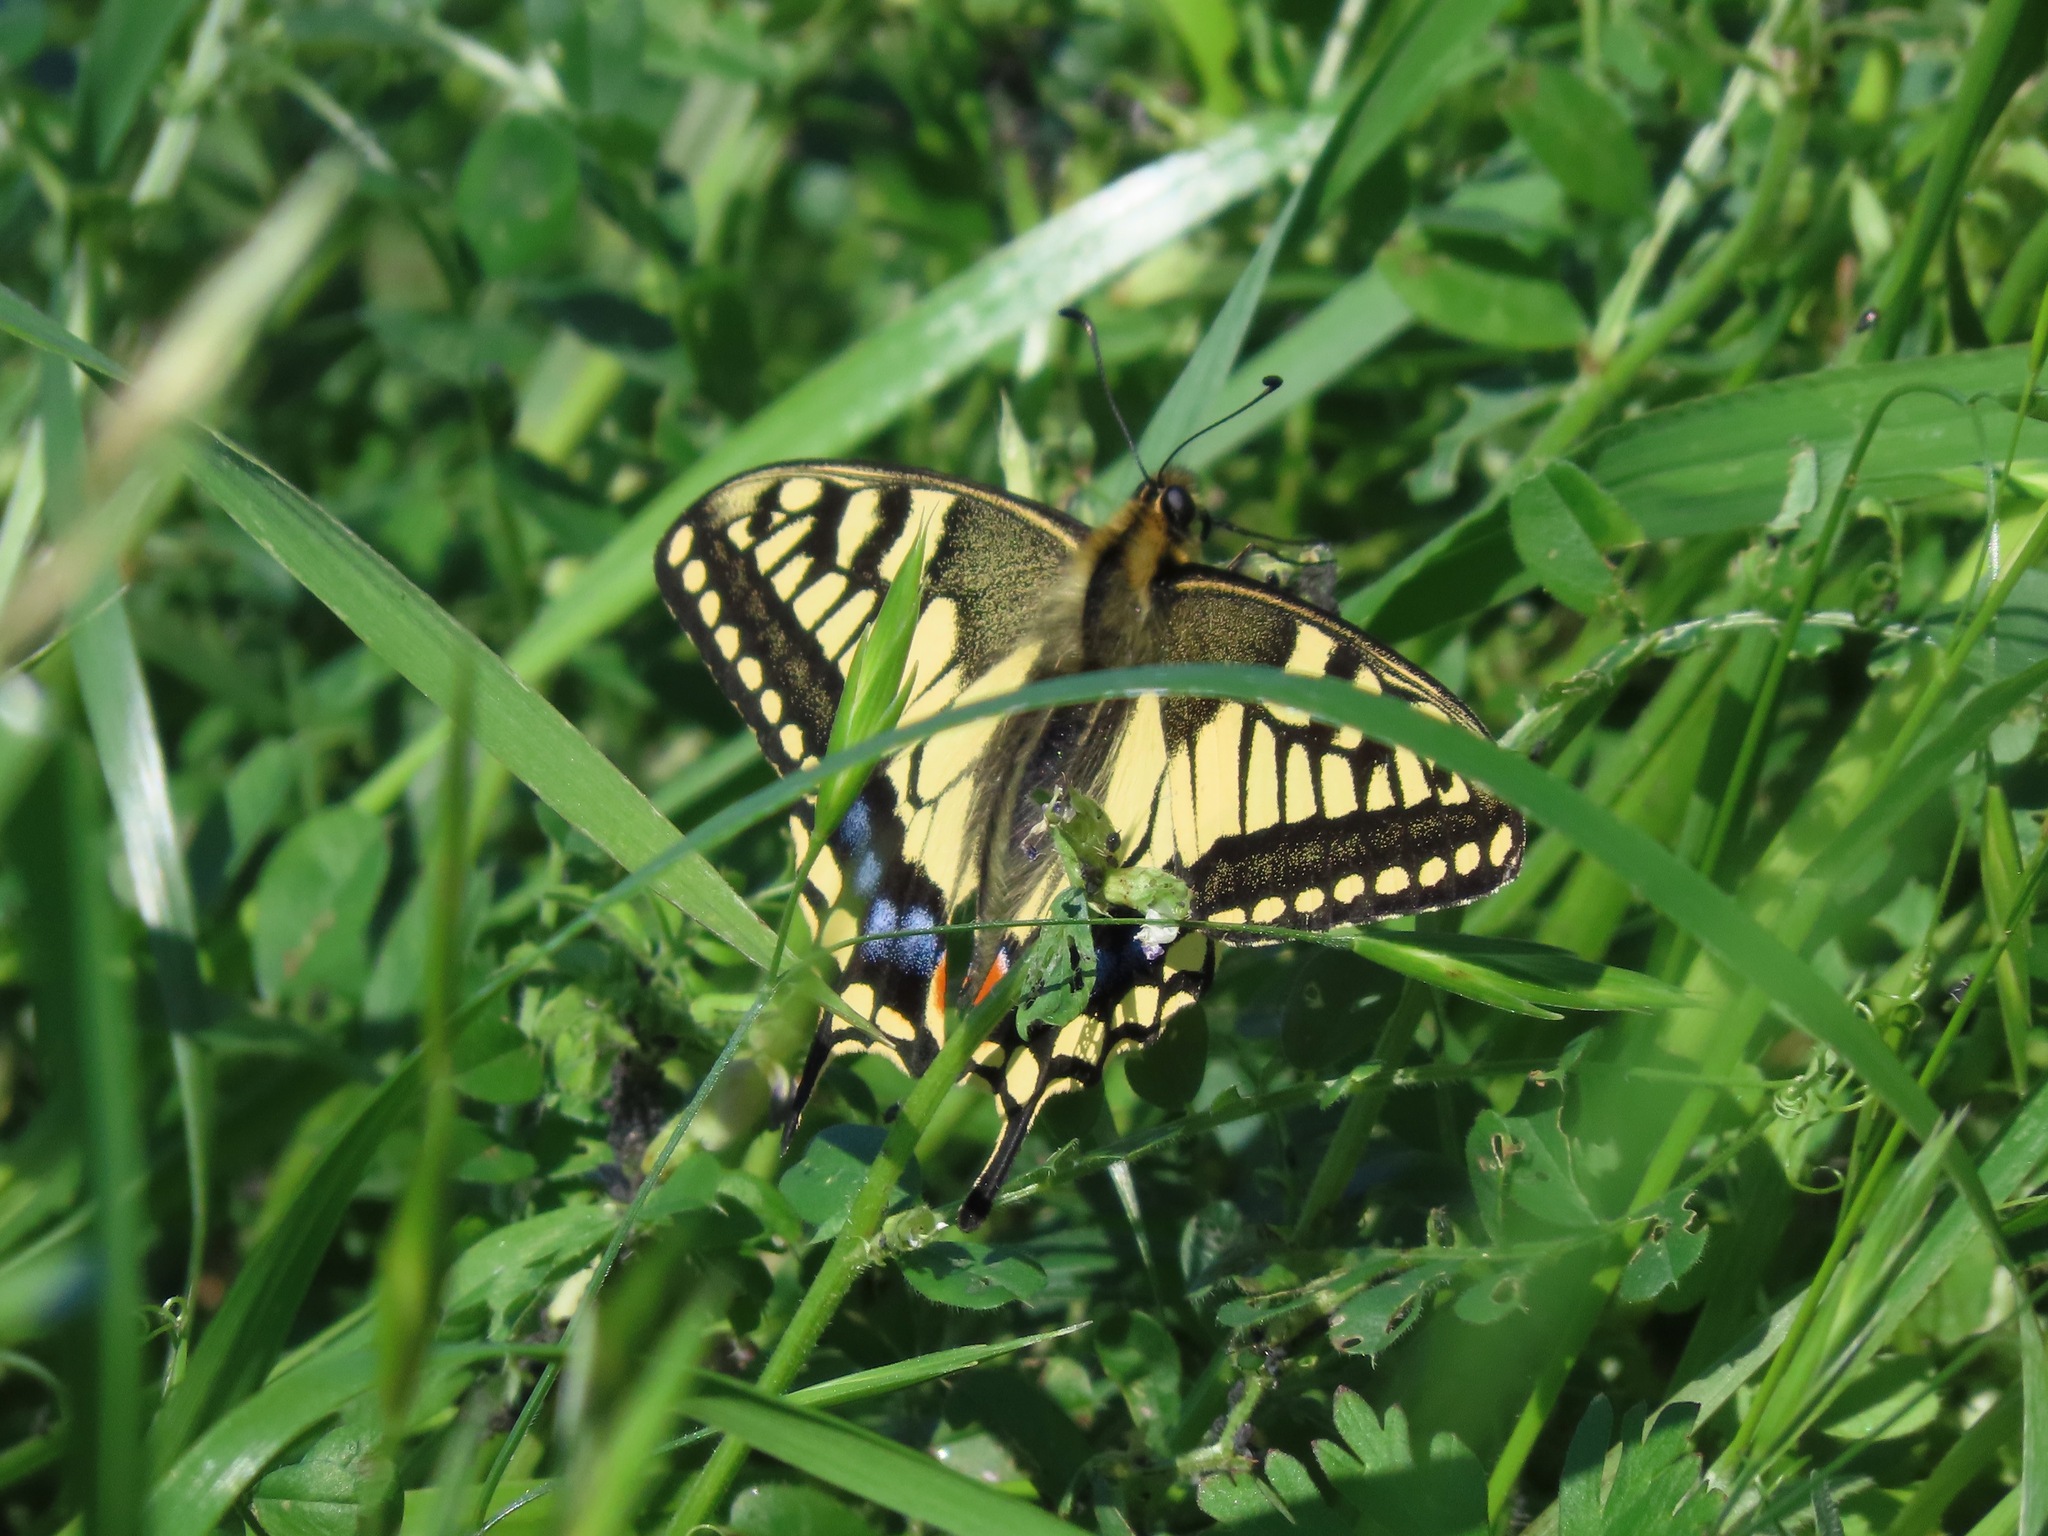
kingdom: Animalia
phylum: Arthropoda
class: Insecta
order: Lepidoptera
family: Papilionidae
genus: Papilio
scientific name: Papilio machaon
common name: Swallowtail
